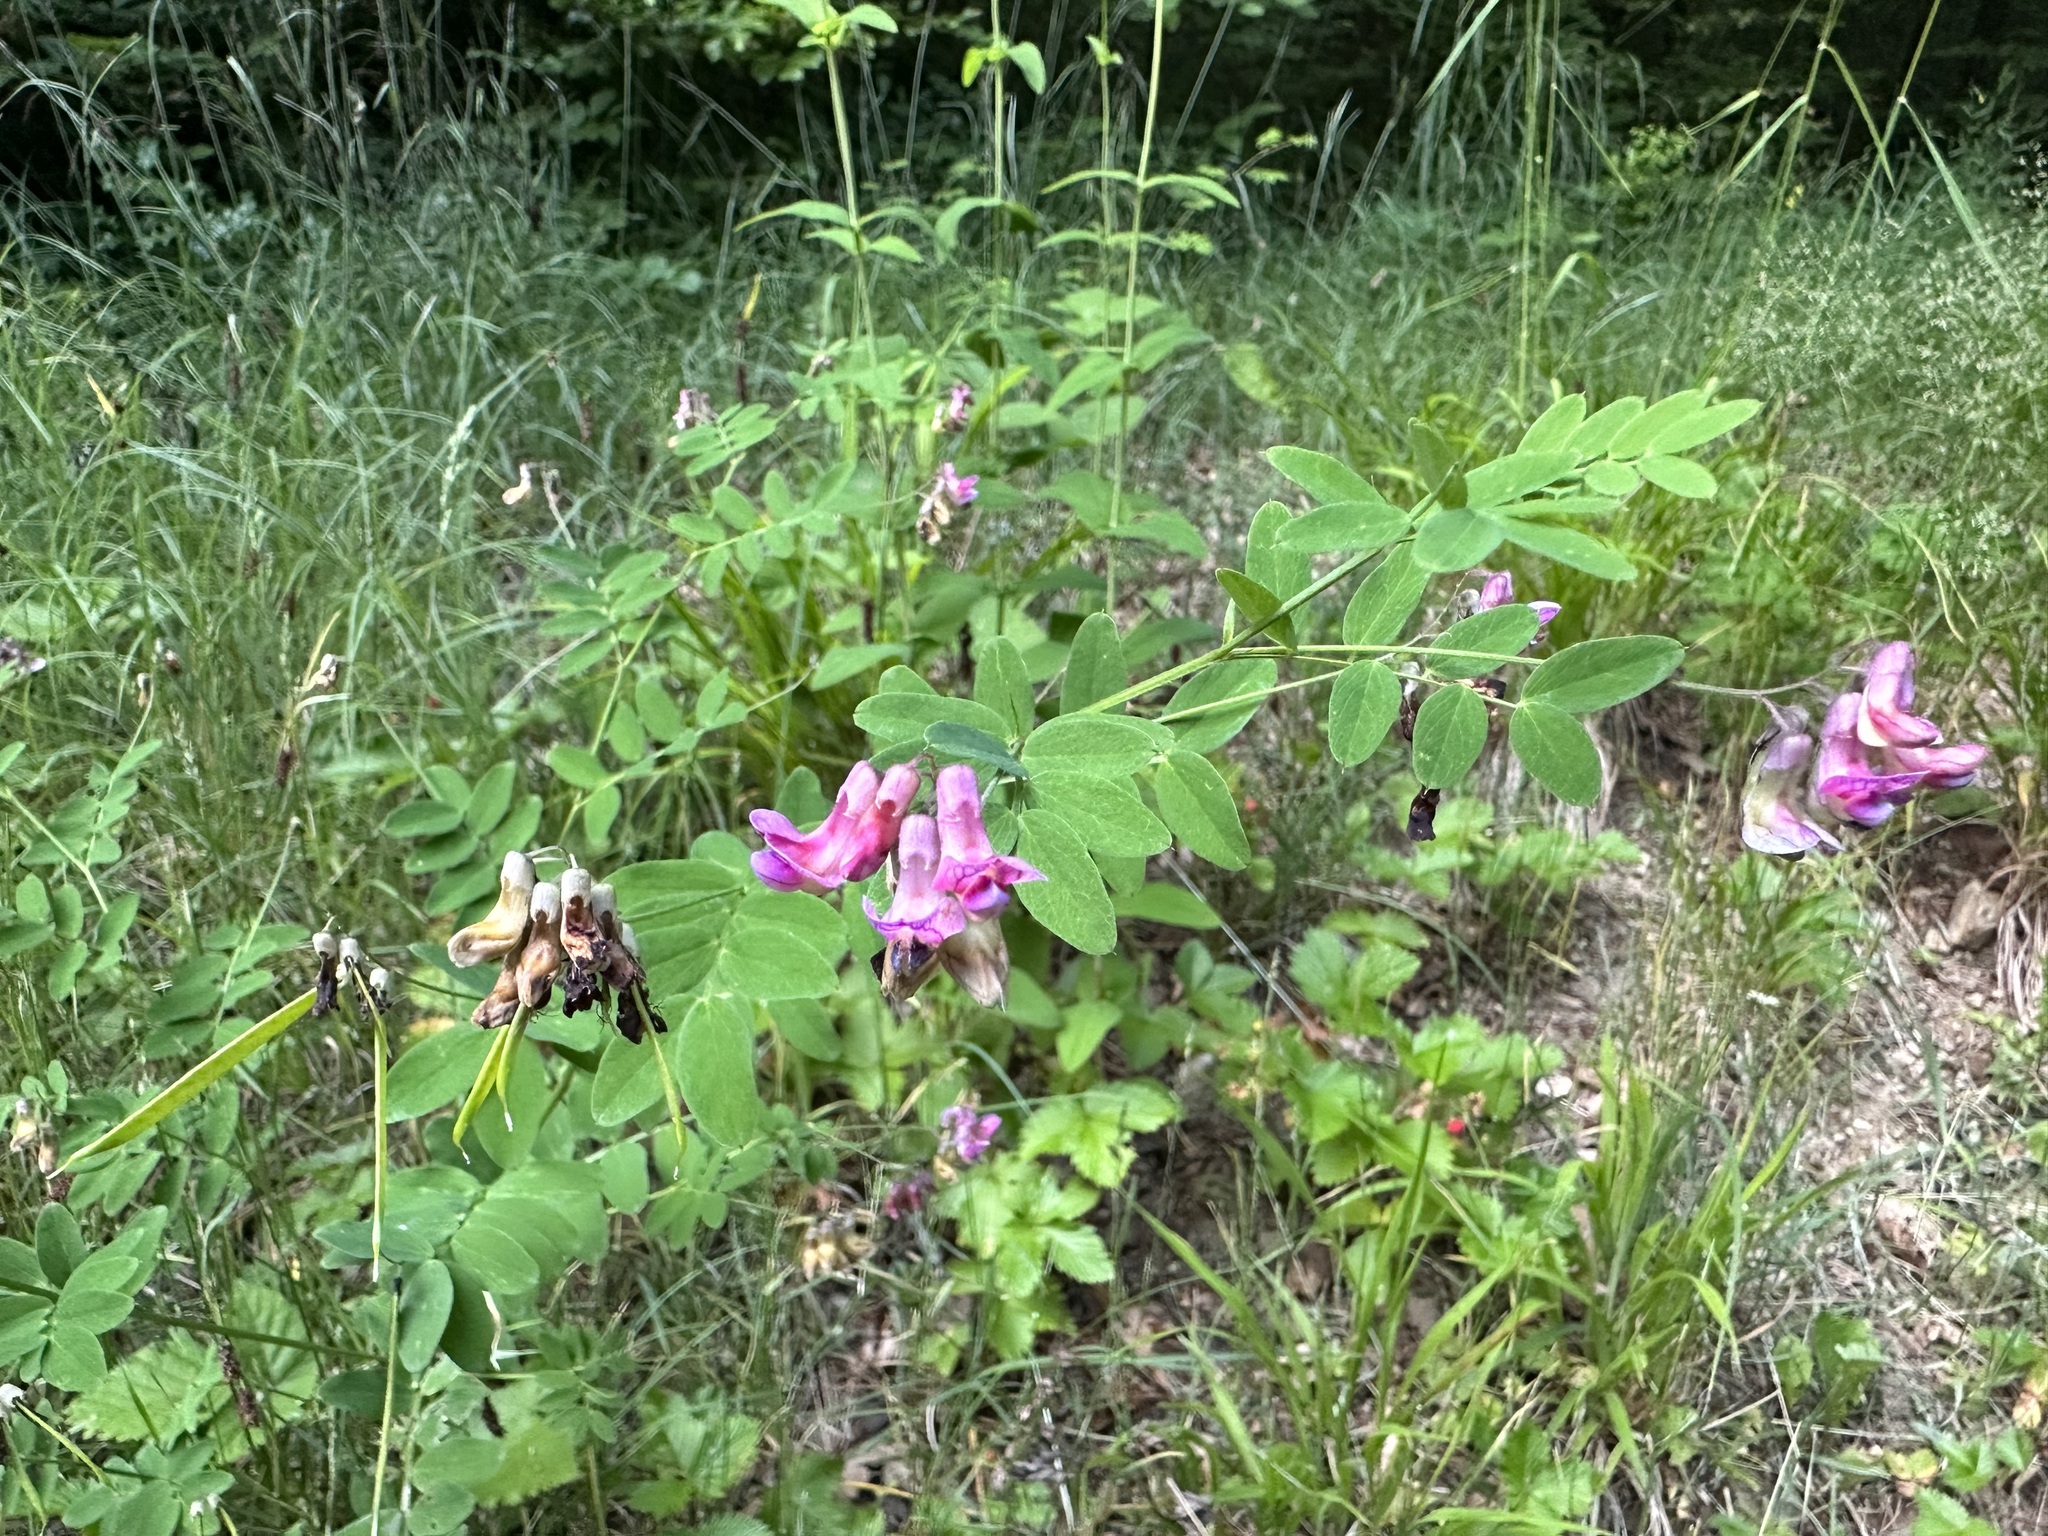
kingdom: Plantae
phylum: Tracheophyta
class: Magnoliopsida
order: Fabales
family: Fabaceae
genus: Lathyrus
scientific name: Lathyrus niger
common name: Black pea
